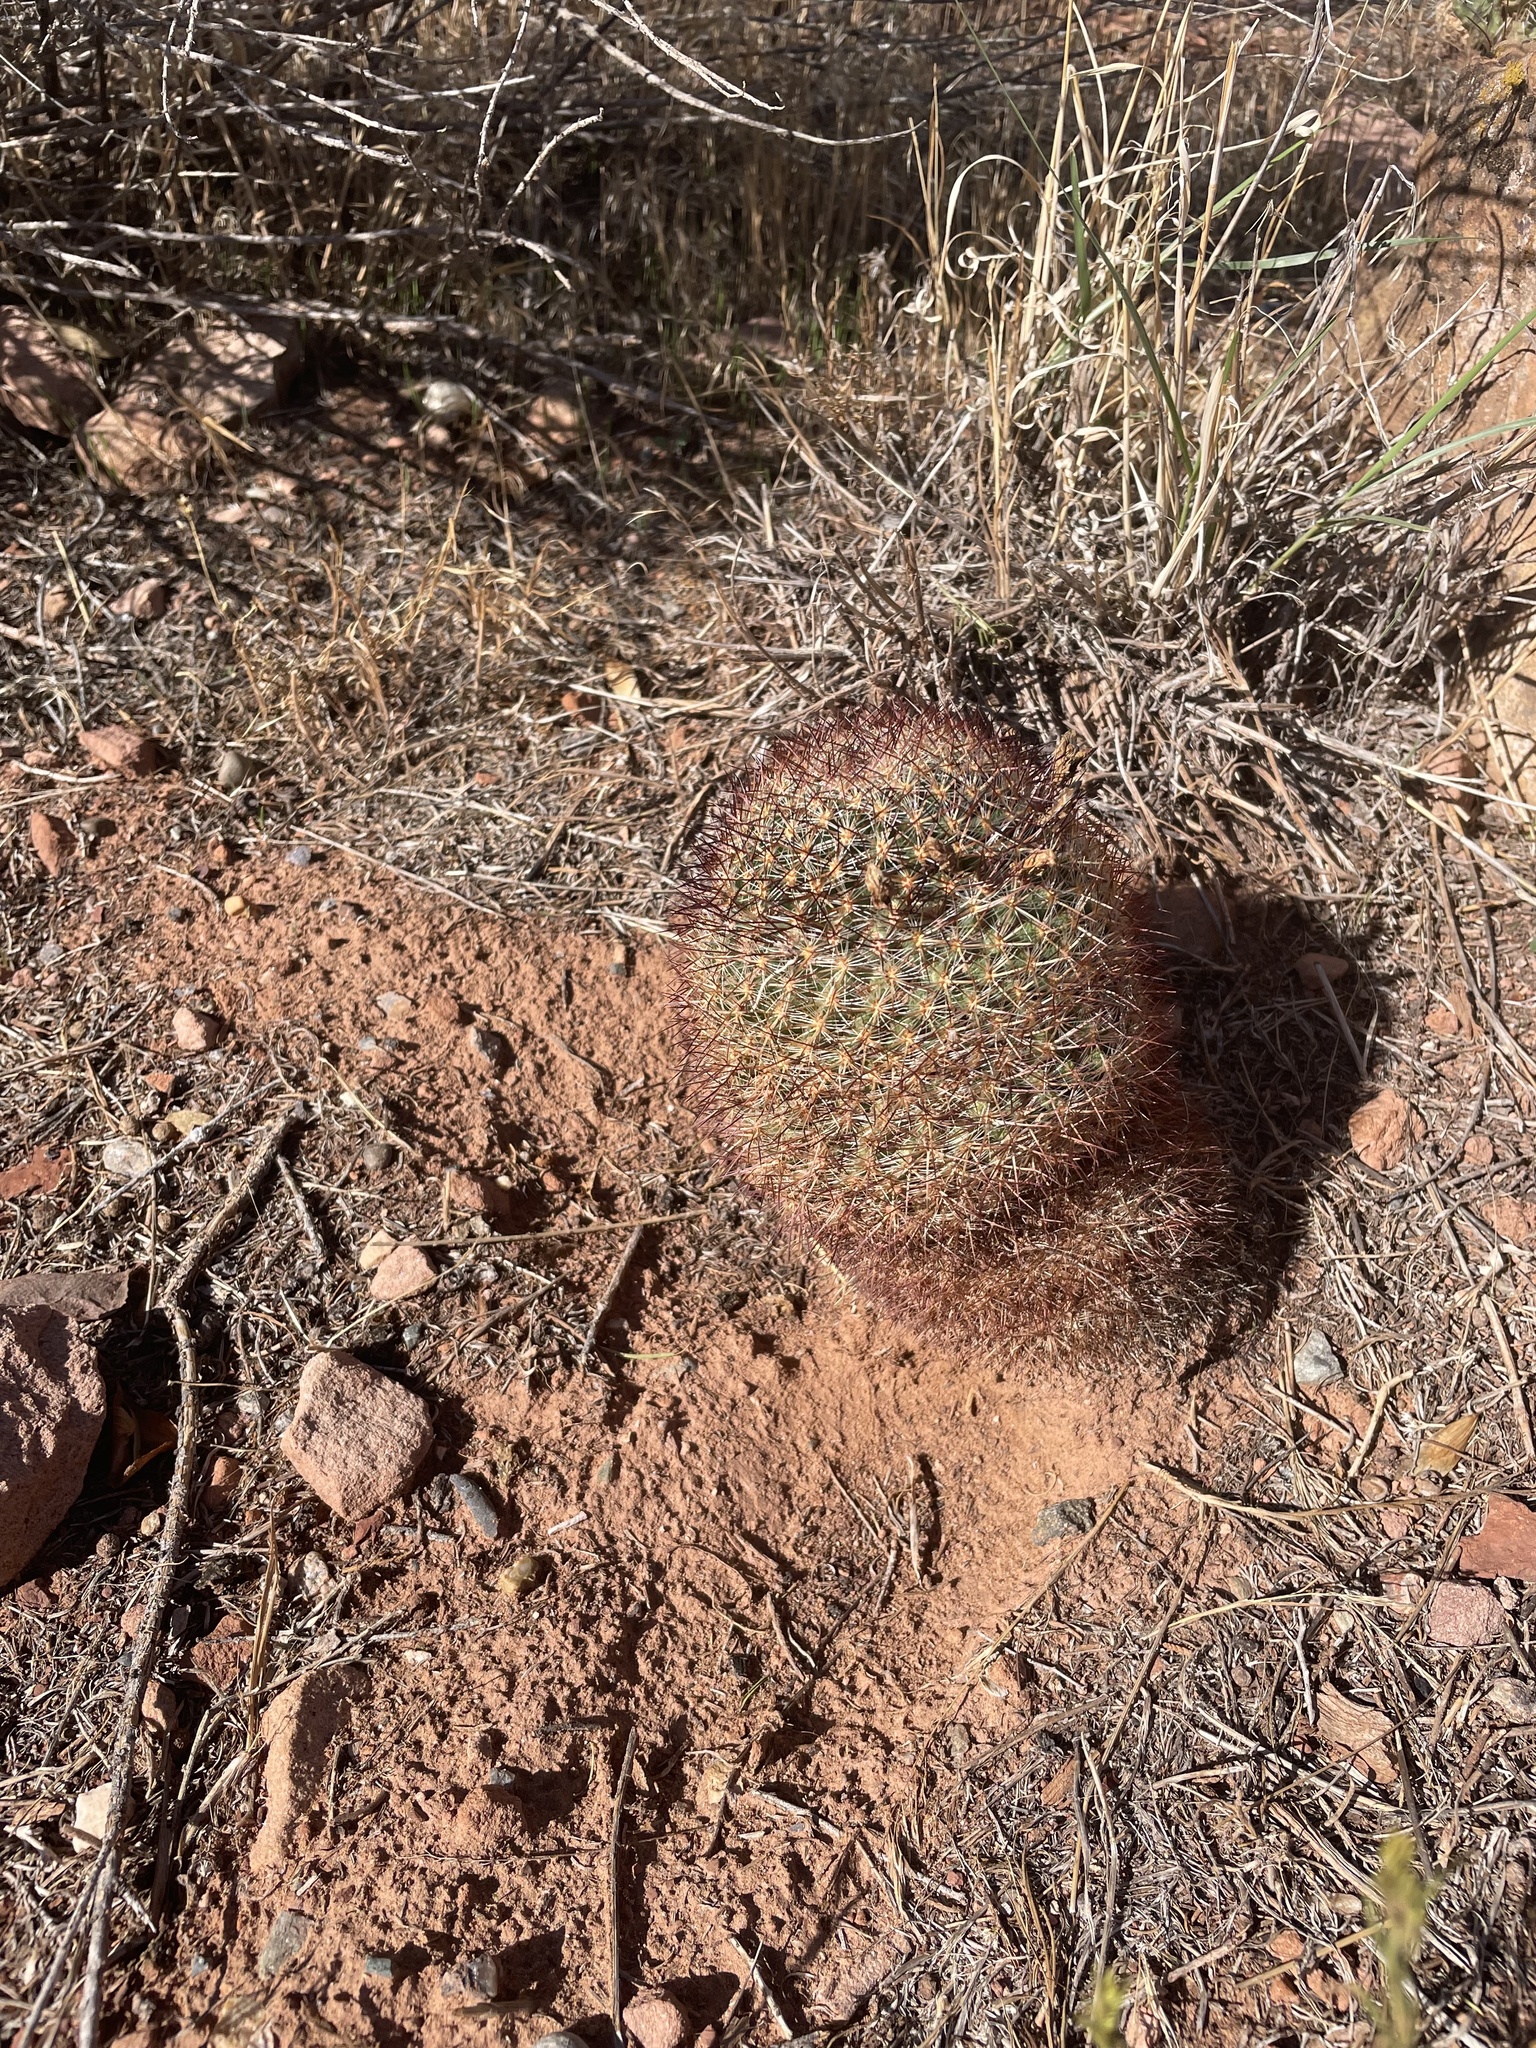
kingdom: Plantae
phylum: Tracheophyta
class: Magnoliopsida
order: Caryophyllales
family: Cactaceae
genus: Pediocactus
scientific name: Pediocactus simpsonii
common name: Simpson's hedgehog cactus
